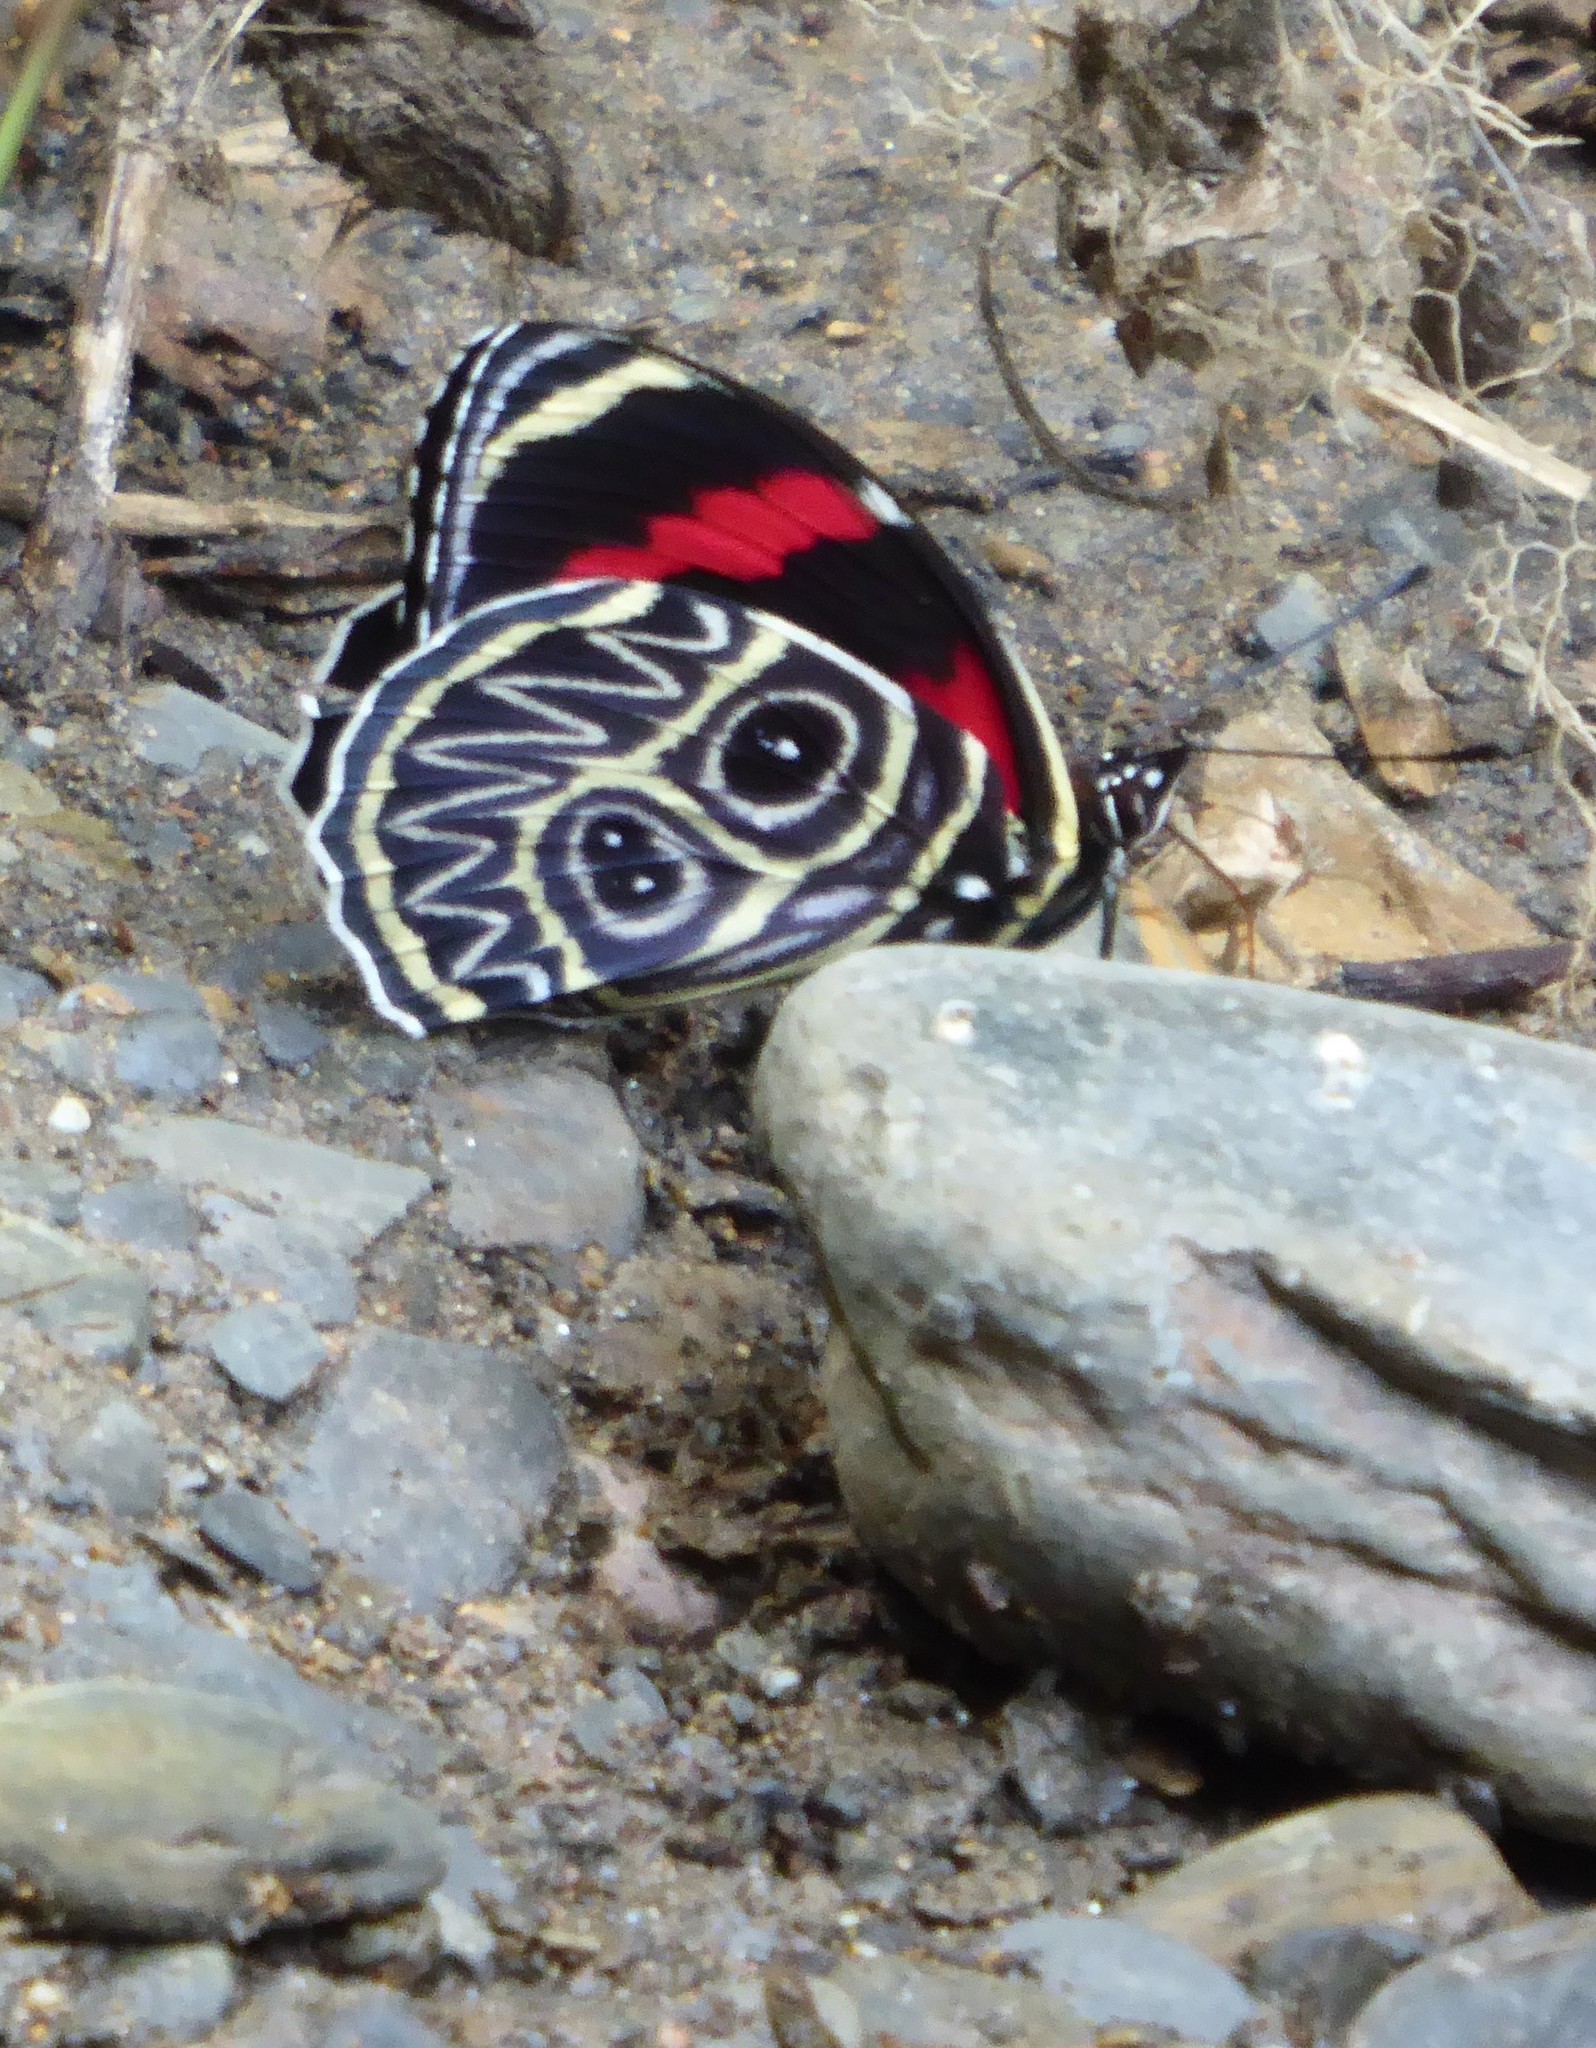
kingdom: Animalia
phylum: Arthropoda
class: Insecta
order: Lepidoptera
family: Nymphalidae
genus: Catagramma
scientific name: Catagramma Callicore sorana
